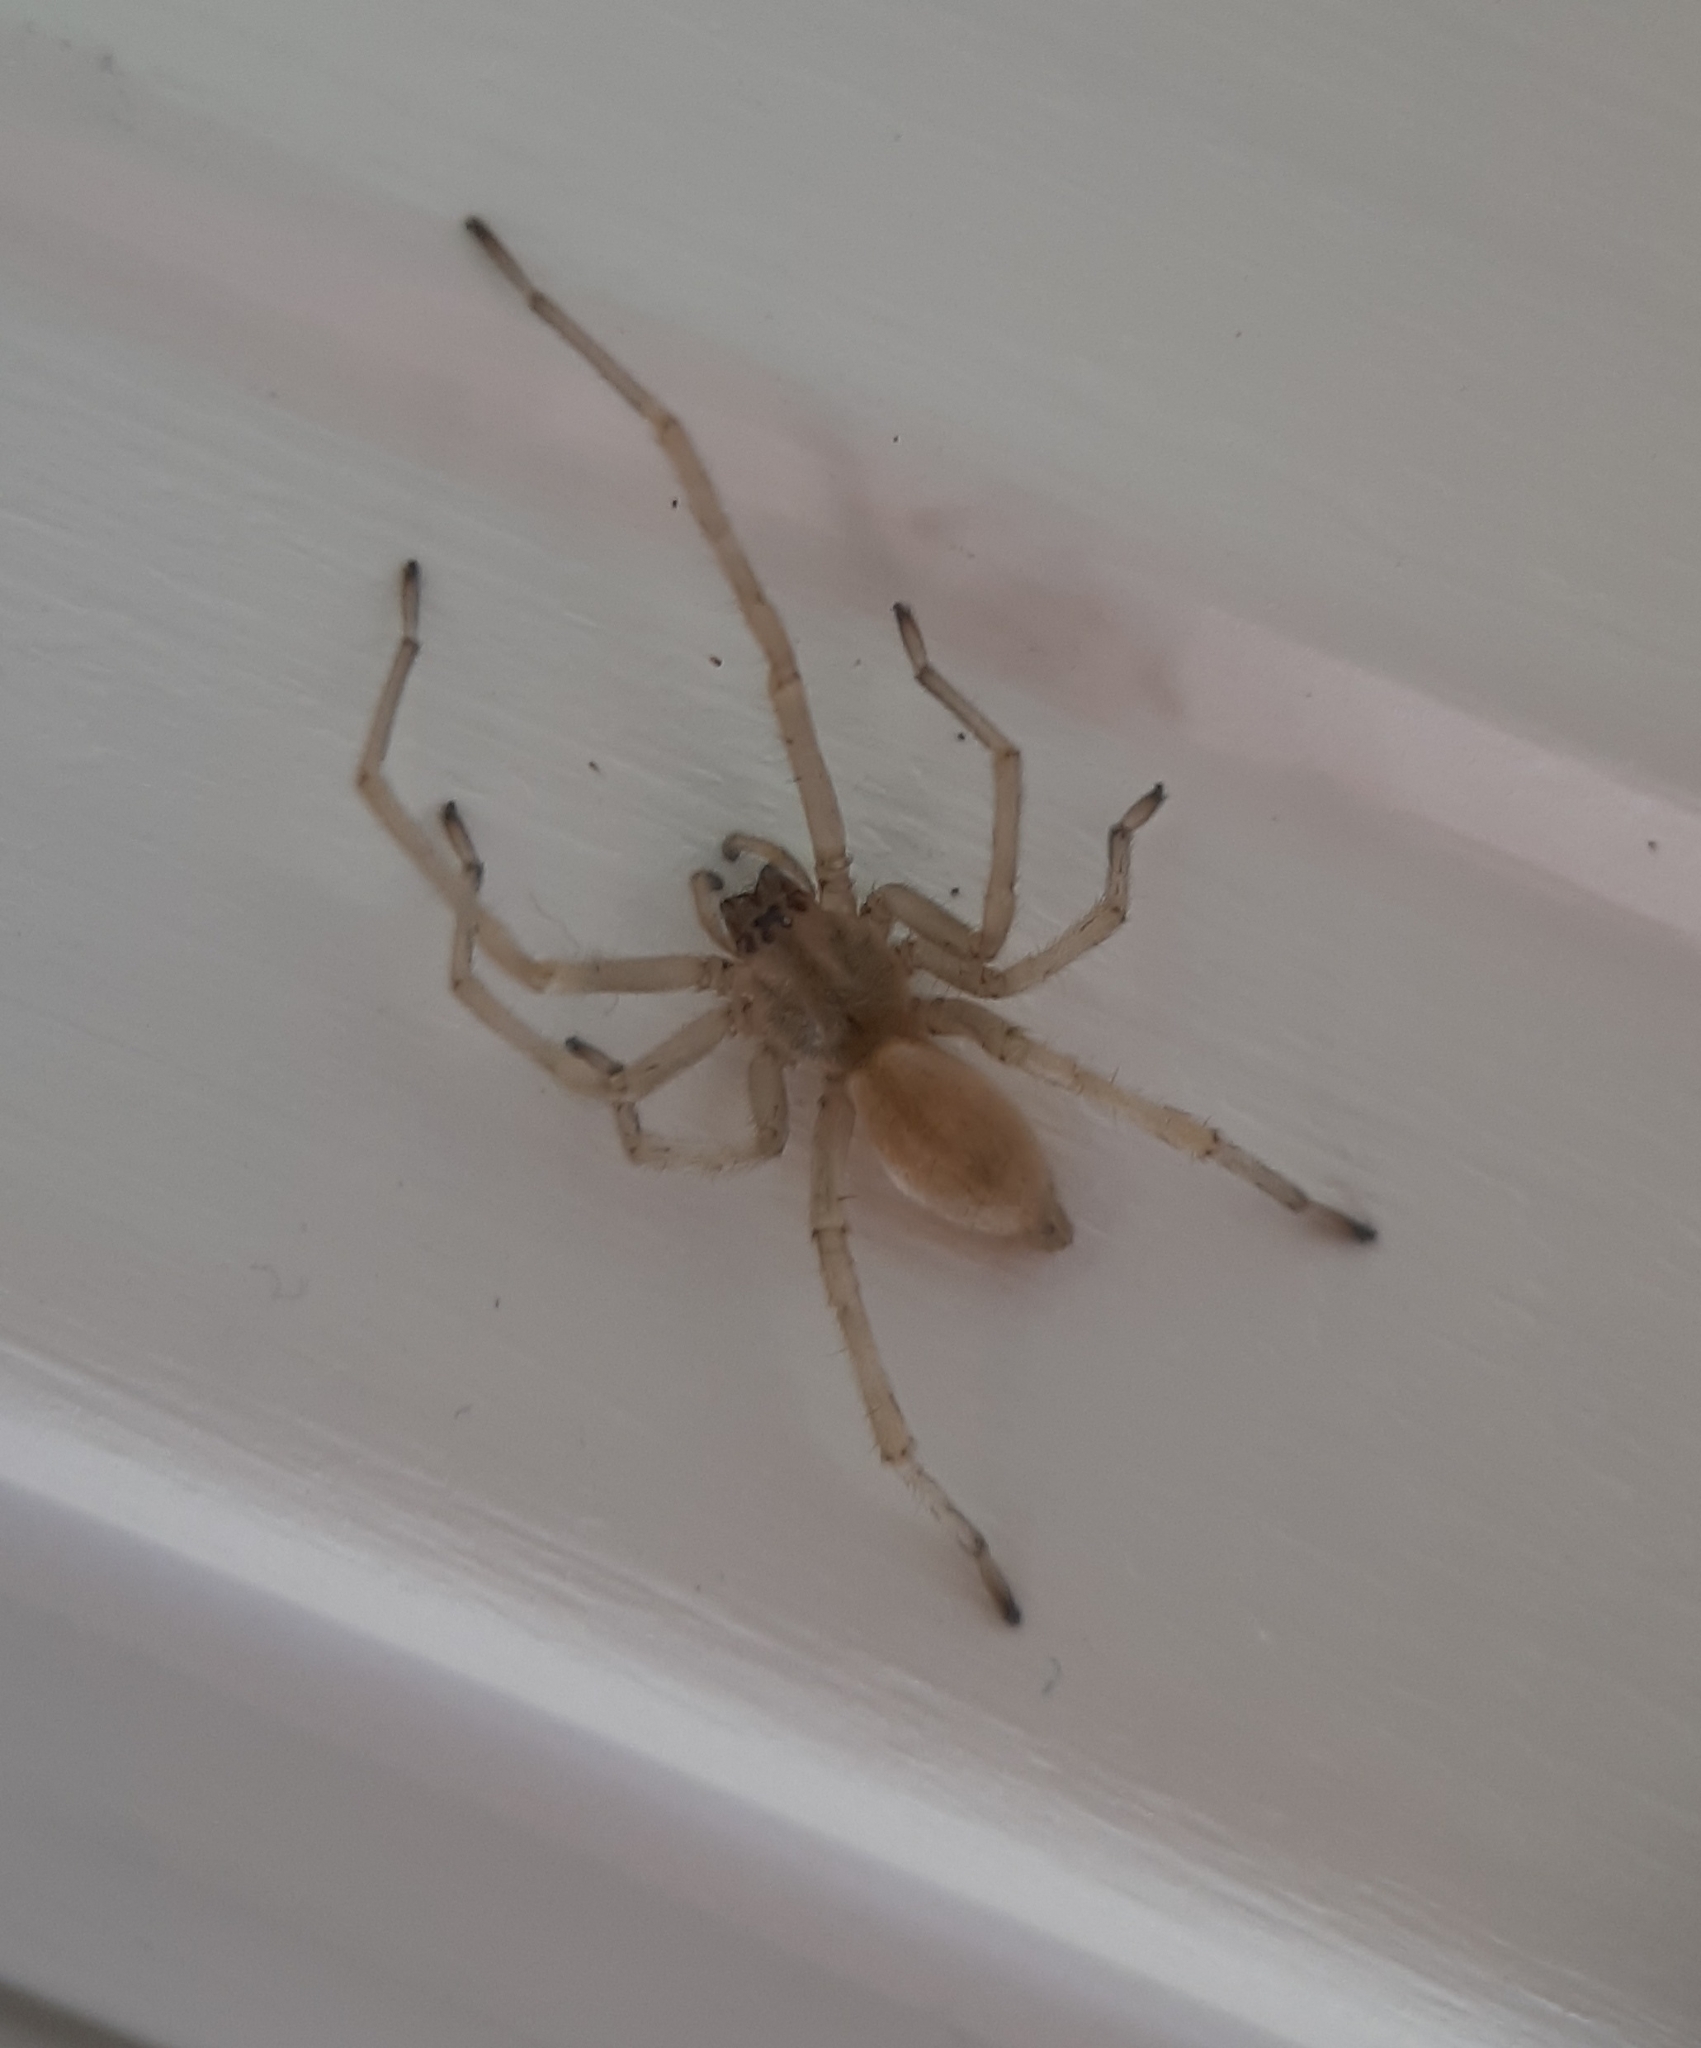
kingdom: Animalia
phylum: Arthropoda
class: Arachnida
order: Araneae
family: Cheiracanthiidae
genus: Cheiracanthium
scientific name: Cheiracanthium mildei
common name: Northern yellow sac spider
